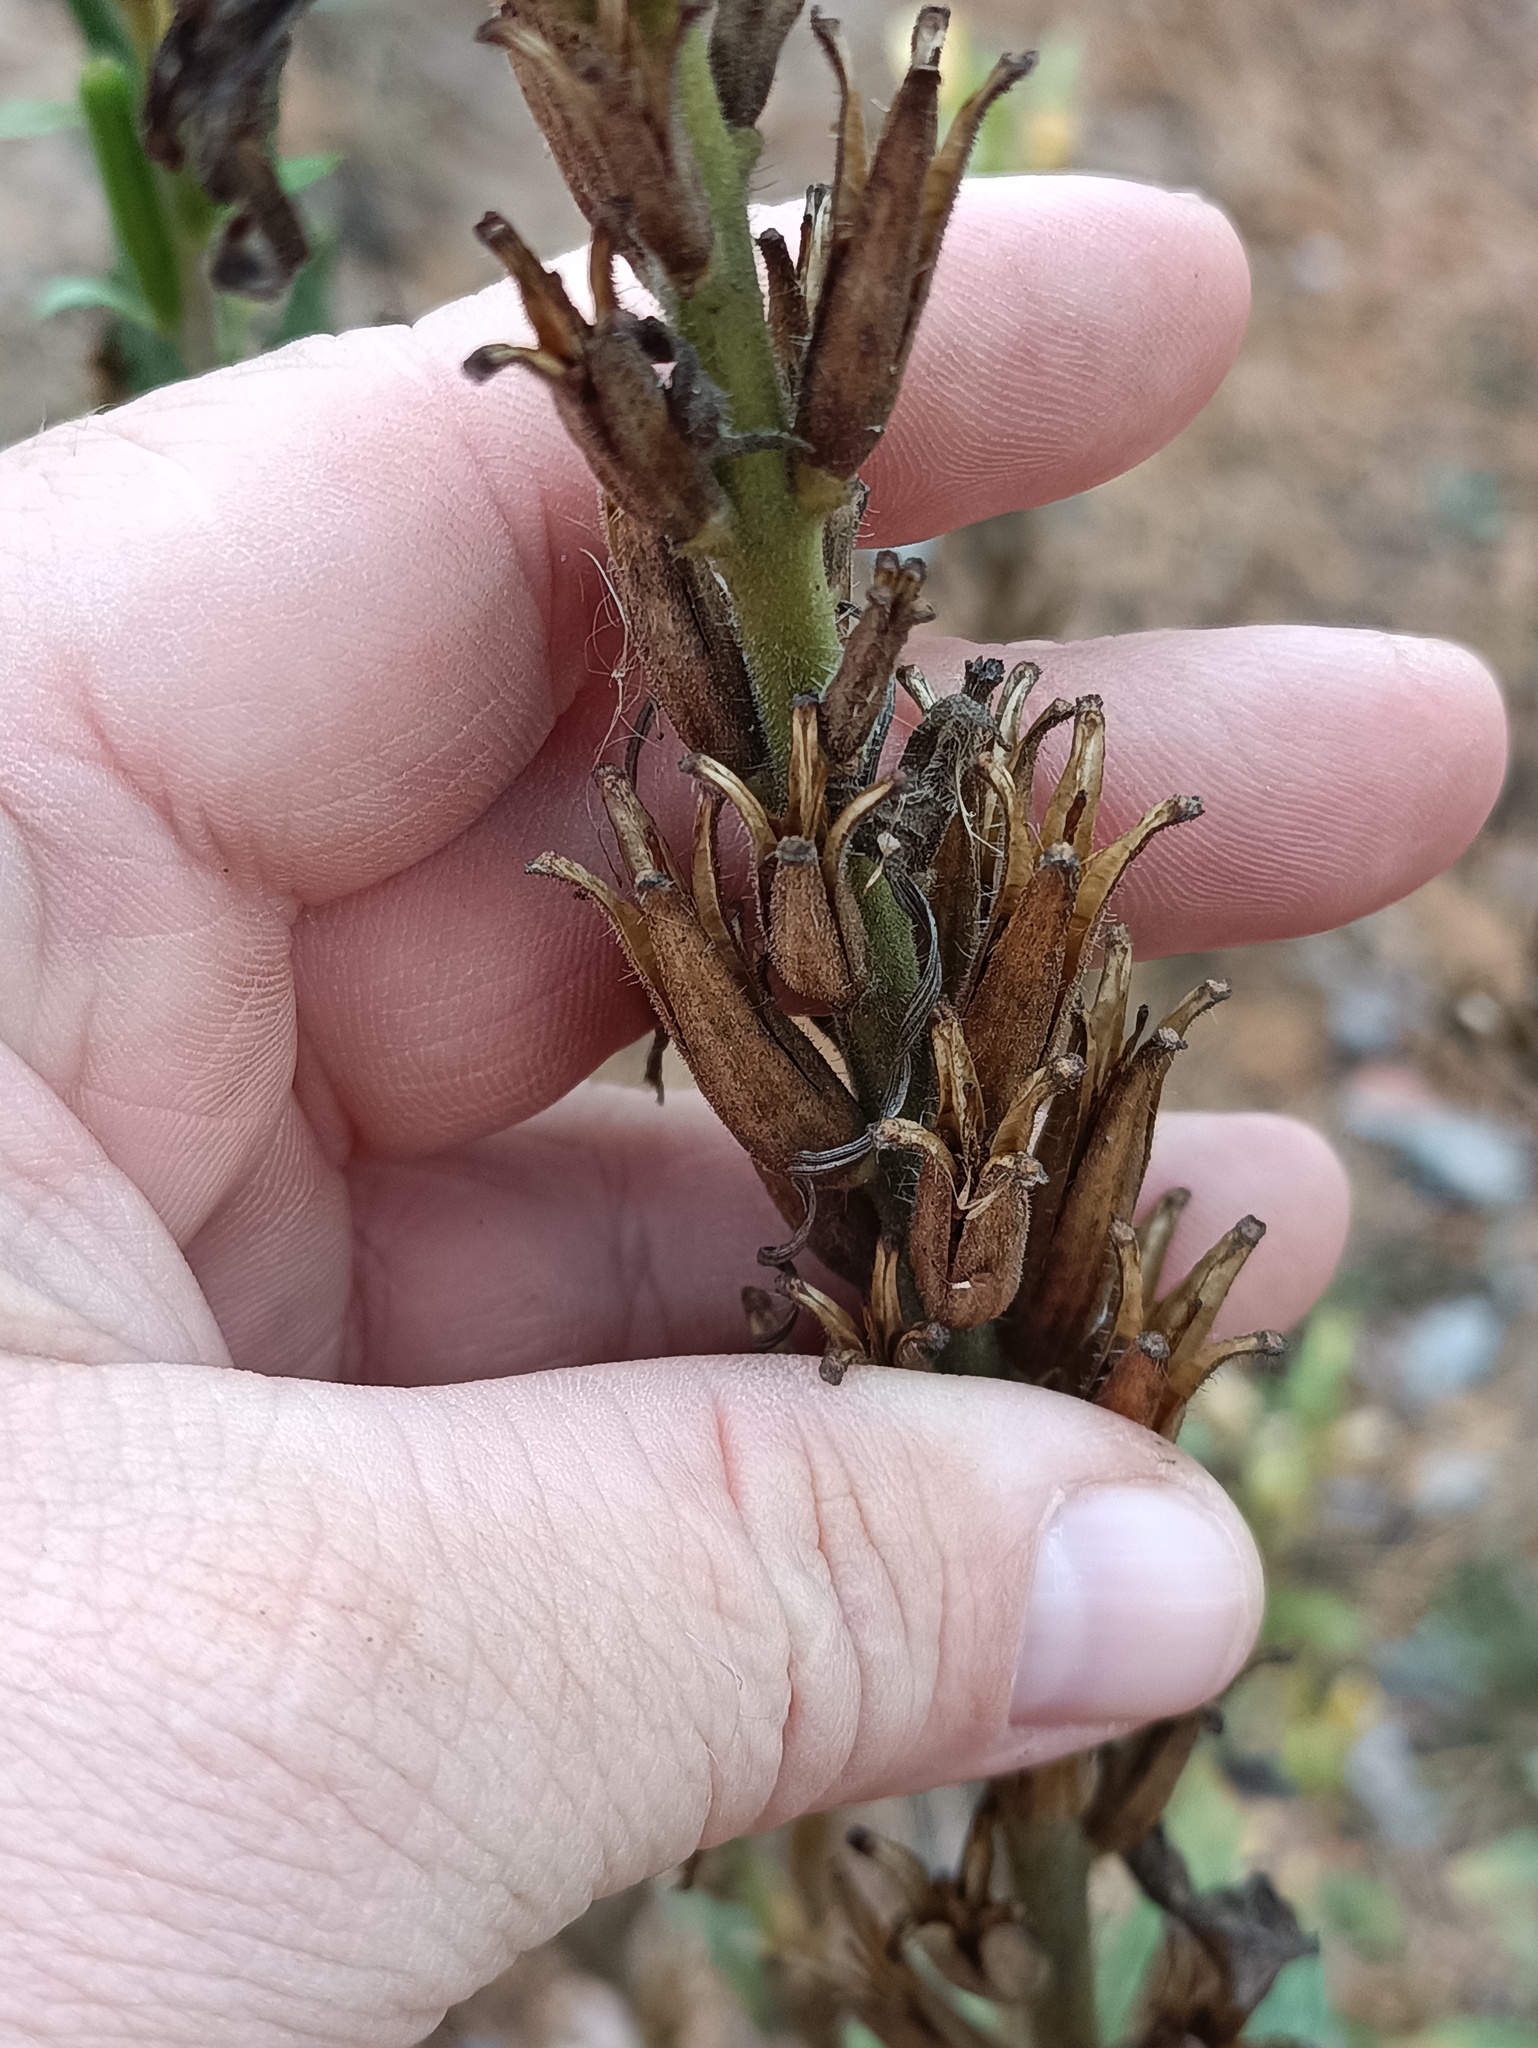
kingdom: Plantae
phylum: Tracheophyta
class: Magnoliopsida
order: Myrtales
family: Onagraceae
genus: Oenothera
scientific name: Oenothera rubricaulis
